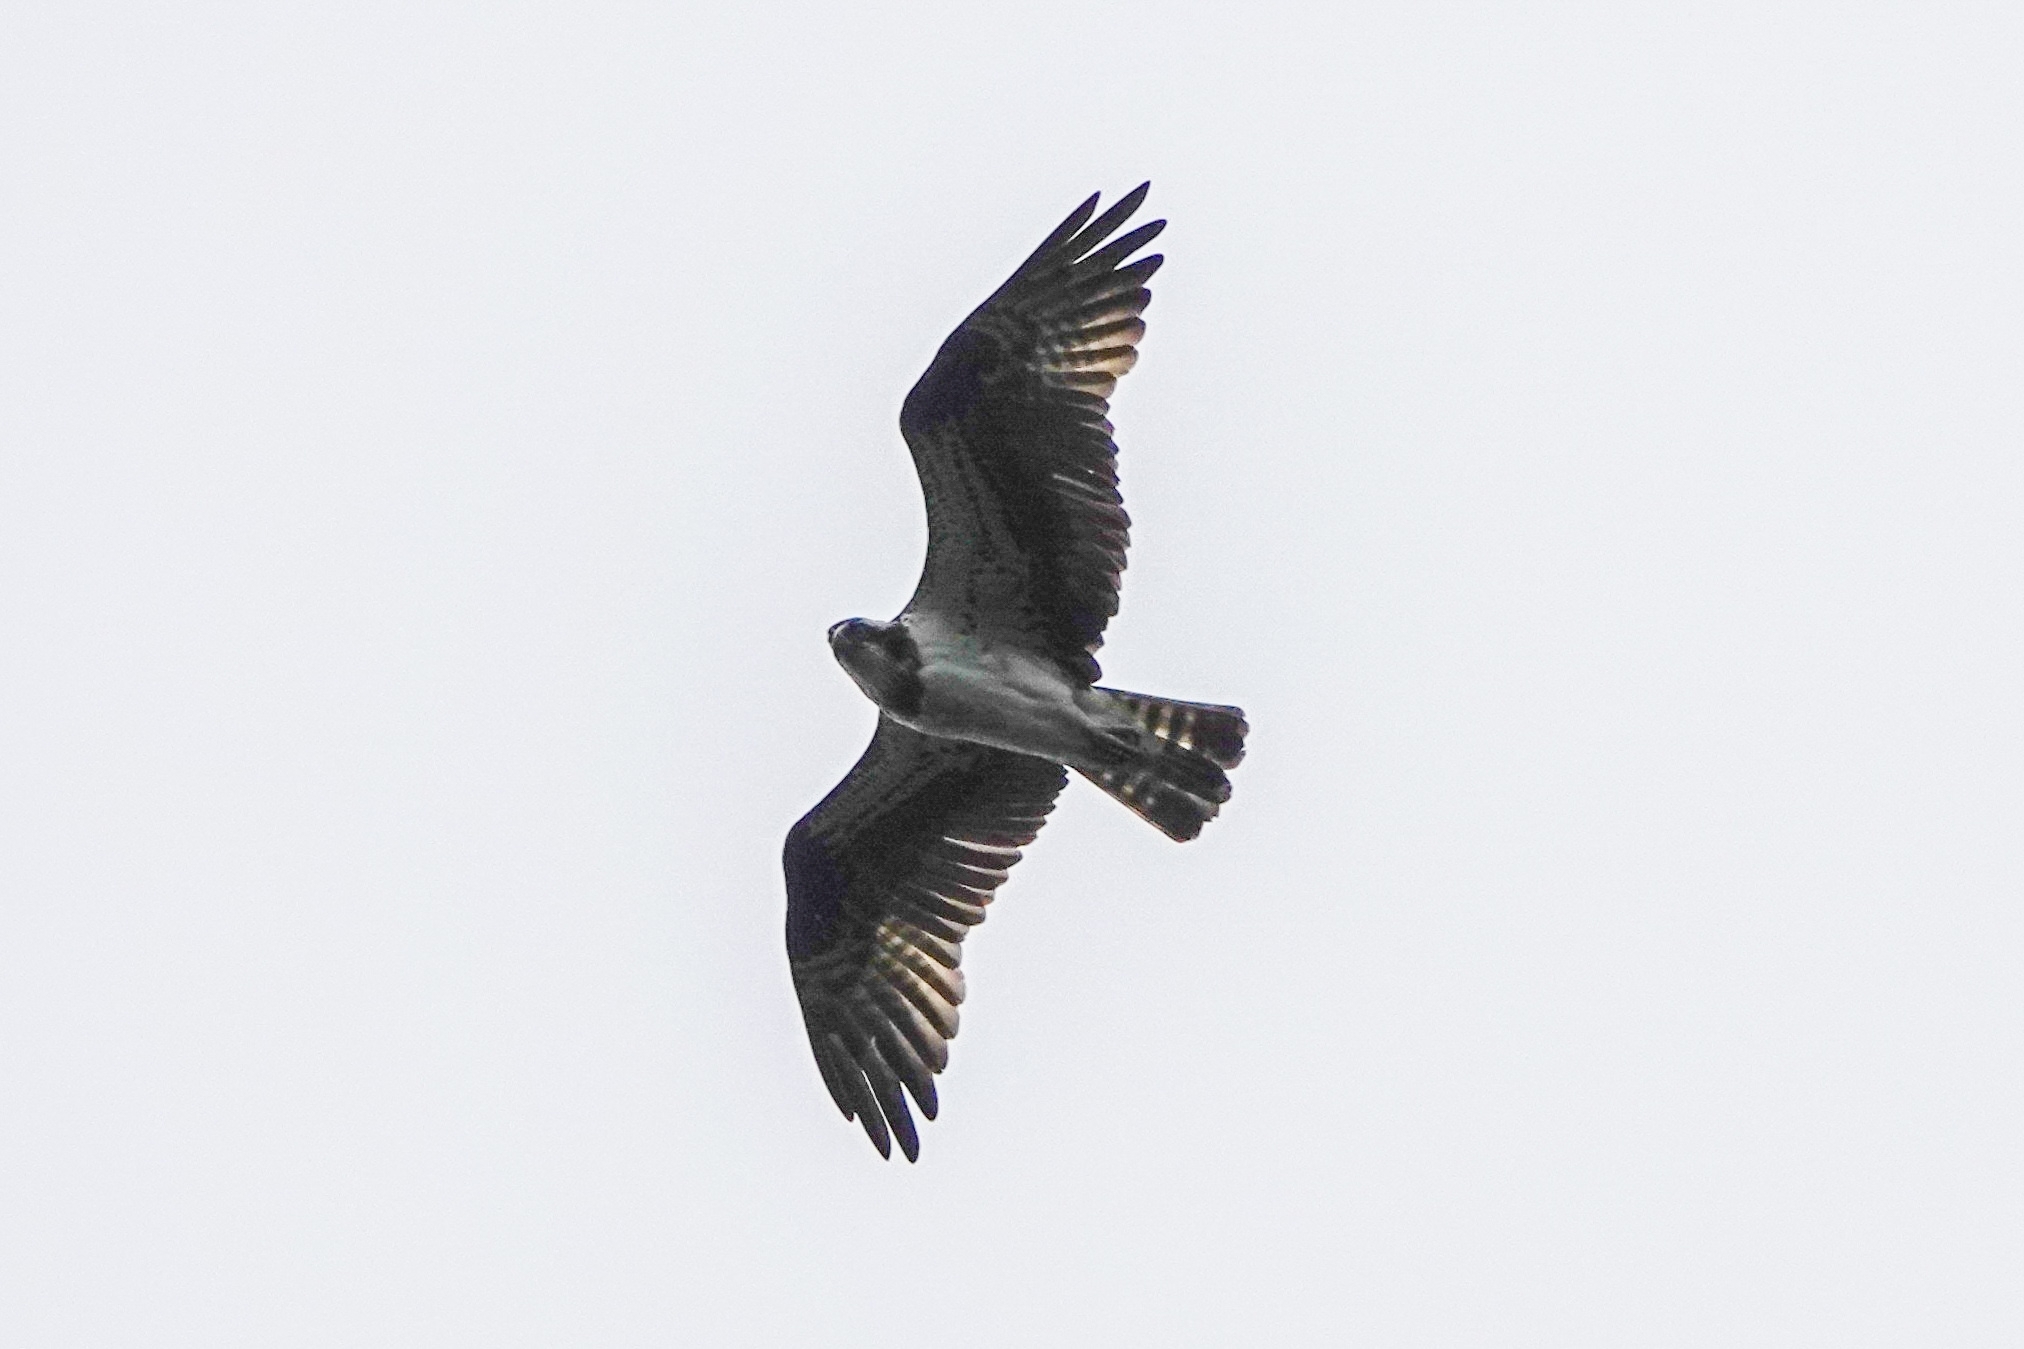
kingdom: Animalia
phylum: Chordata
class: Aves
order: Accipitriformes
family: Pandionidae
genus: Pandion
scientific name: Pandion haliaetus
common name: Osprey
